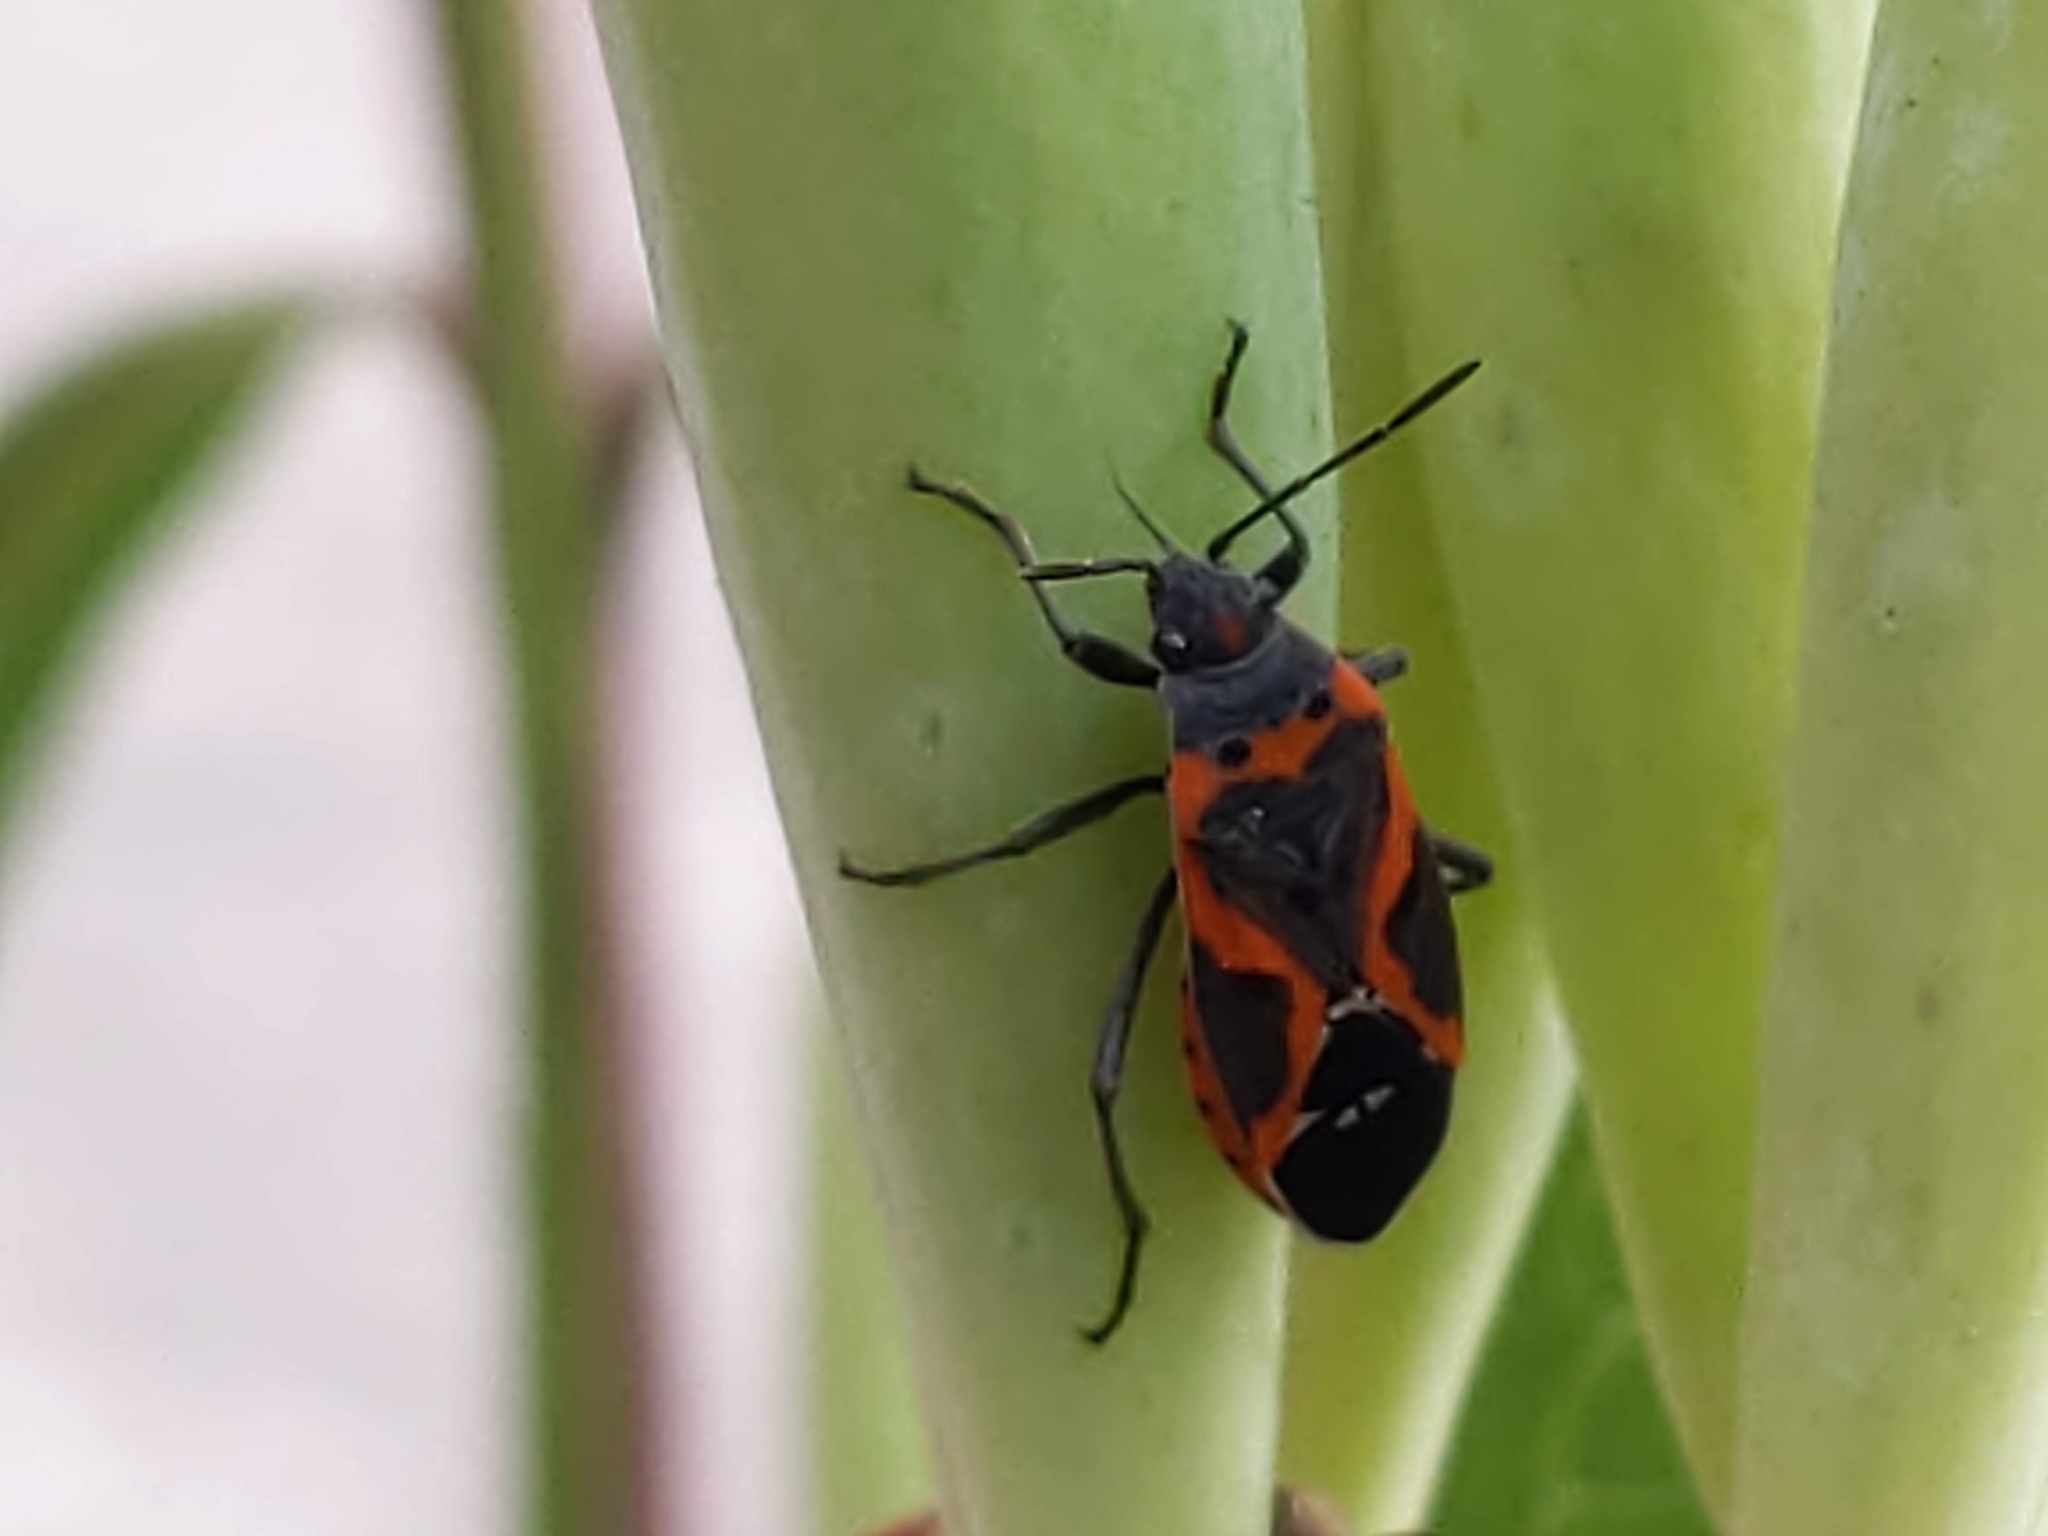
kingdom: Animalia
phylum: Arthropoda
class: Insecta
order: Hemiptera
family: Lygaeidae
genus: Lygaeus
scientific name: Lygaeus kalmii
